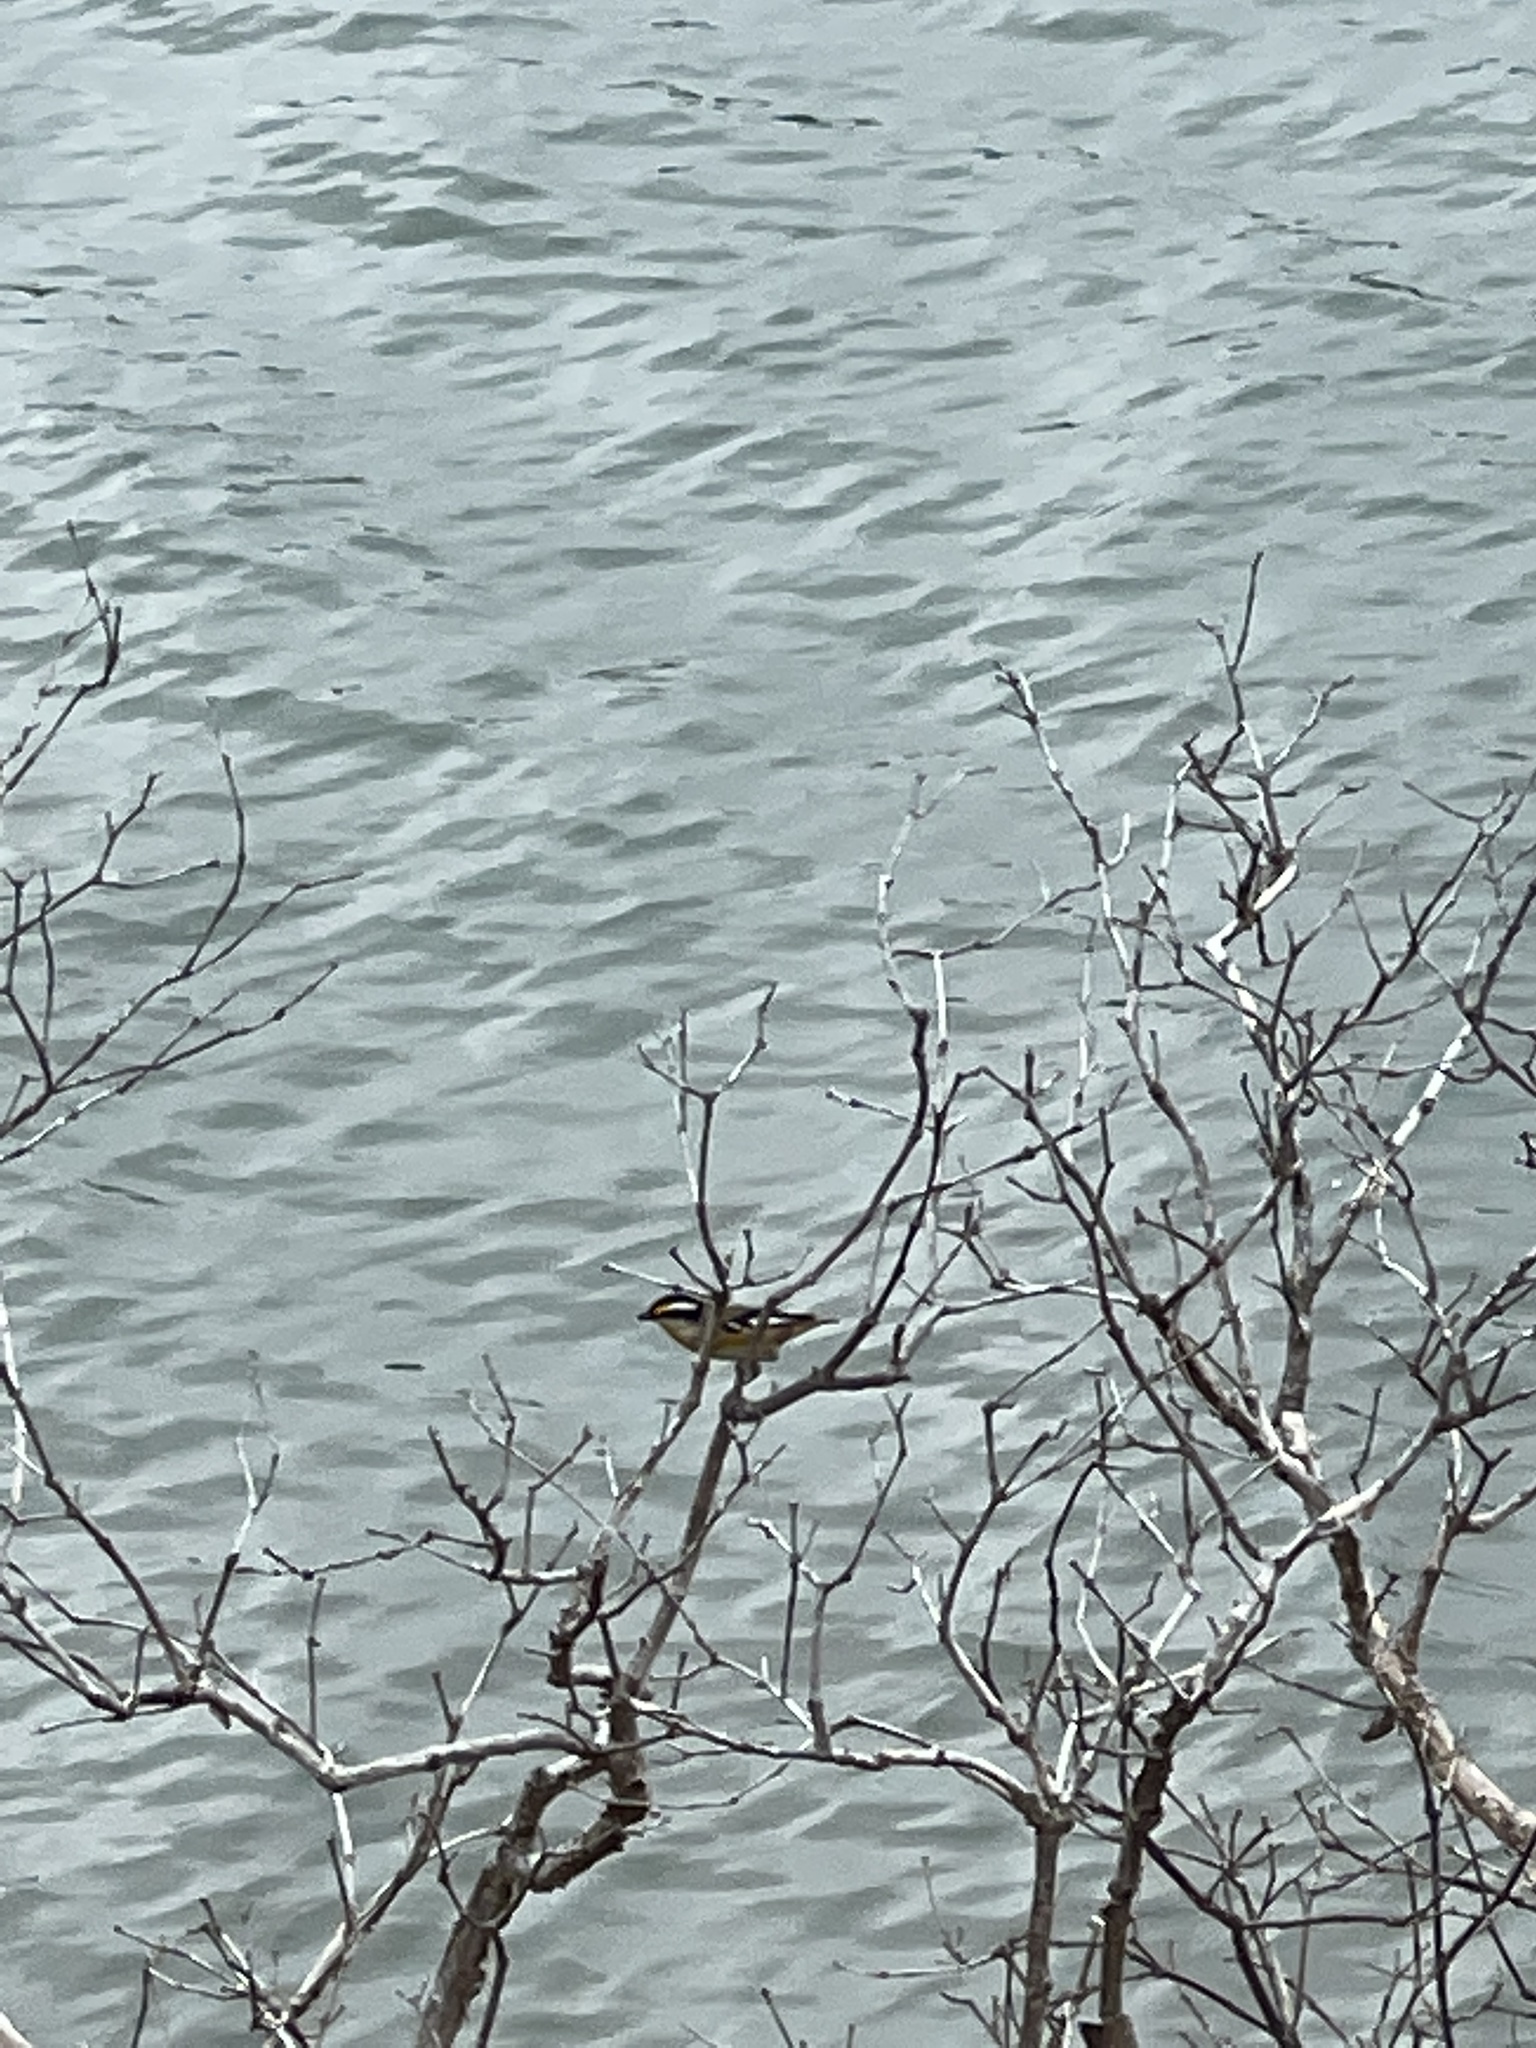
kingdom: Animalia
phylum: Chordata
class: Aves
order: Passeriformes
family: Pardalotidae
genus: Pardalotus
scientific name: Pardalotus striatus
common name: Striated pardalote
